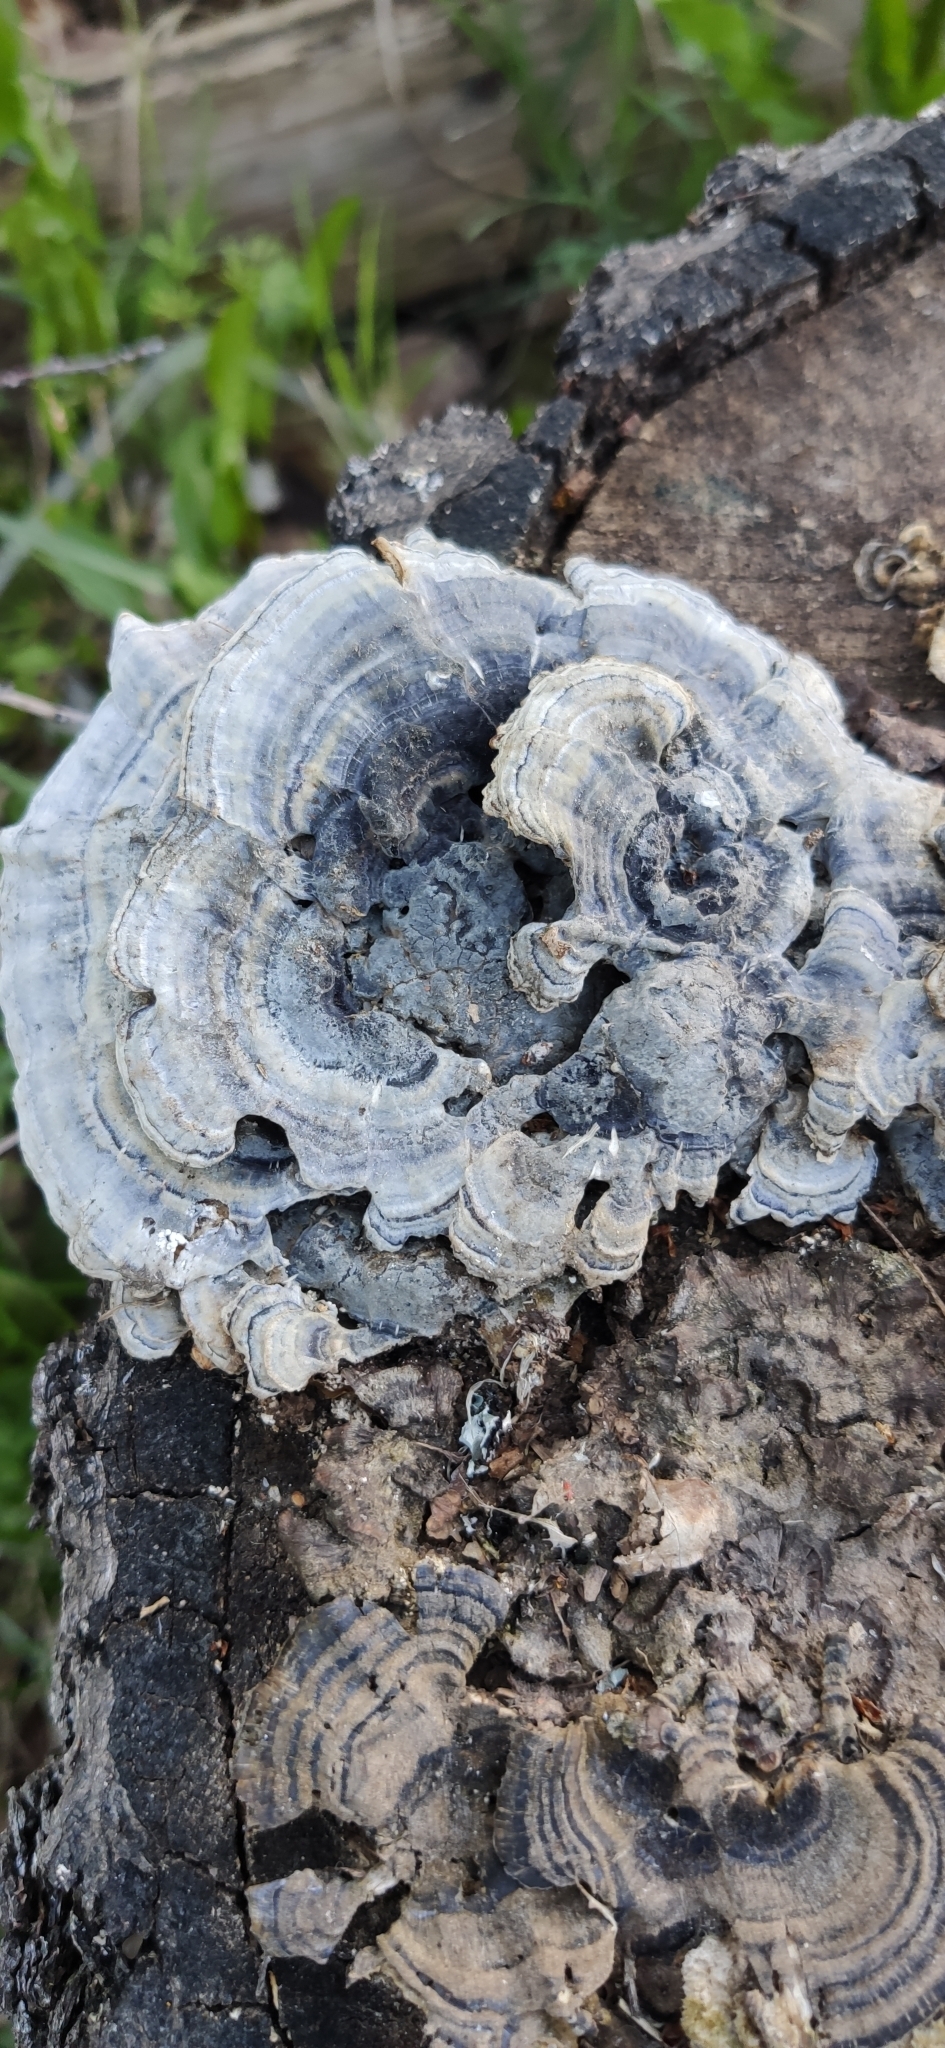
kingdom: Fungi
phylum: Basidiomycota
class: Agaricomycetes
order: Polyporales
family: Polyporaceae
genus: Trametes
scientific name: Trametes versicolor
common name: Turkeytail
